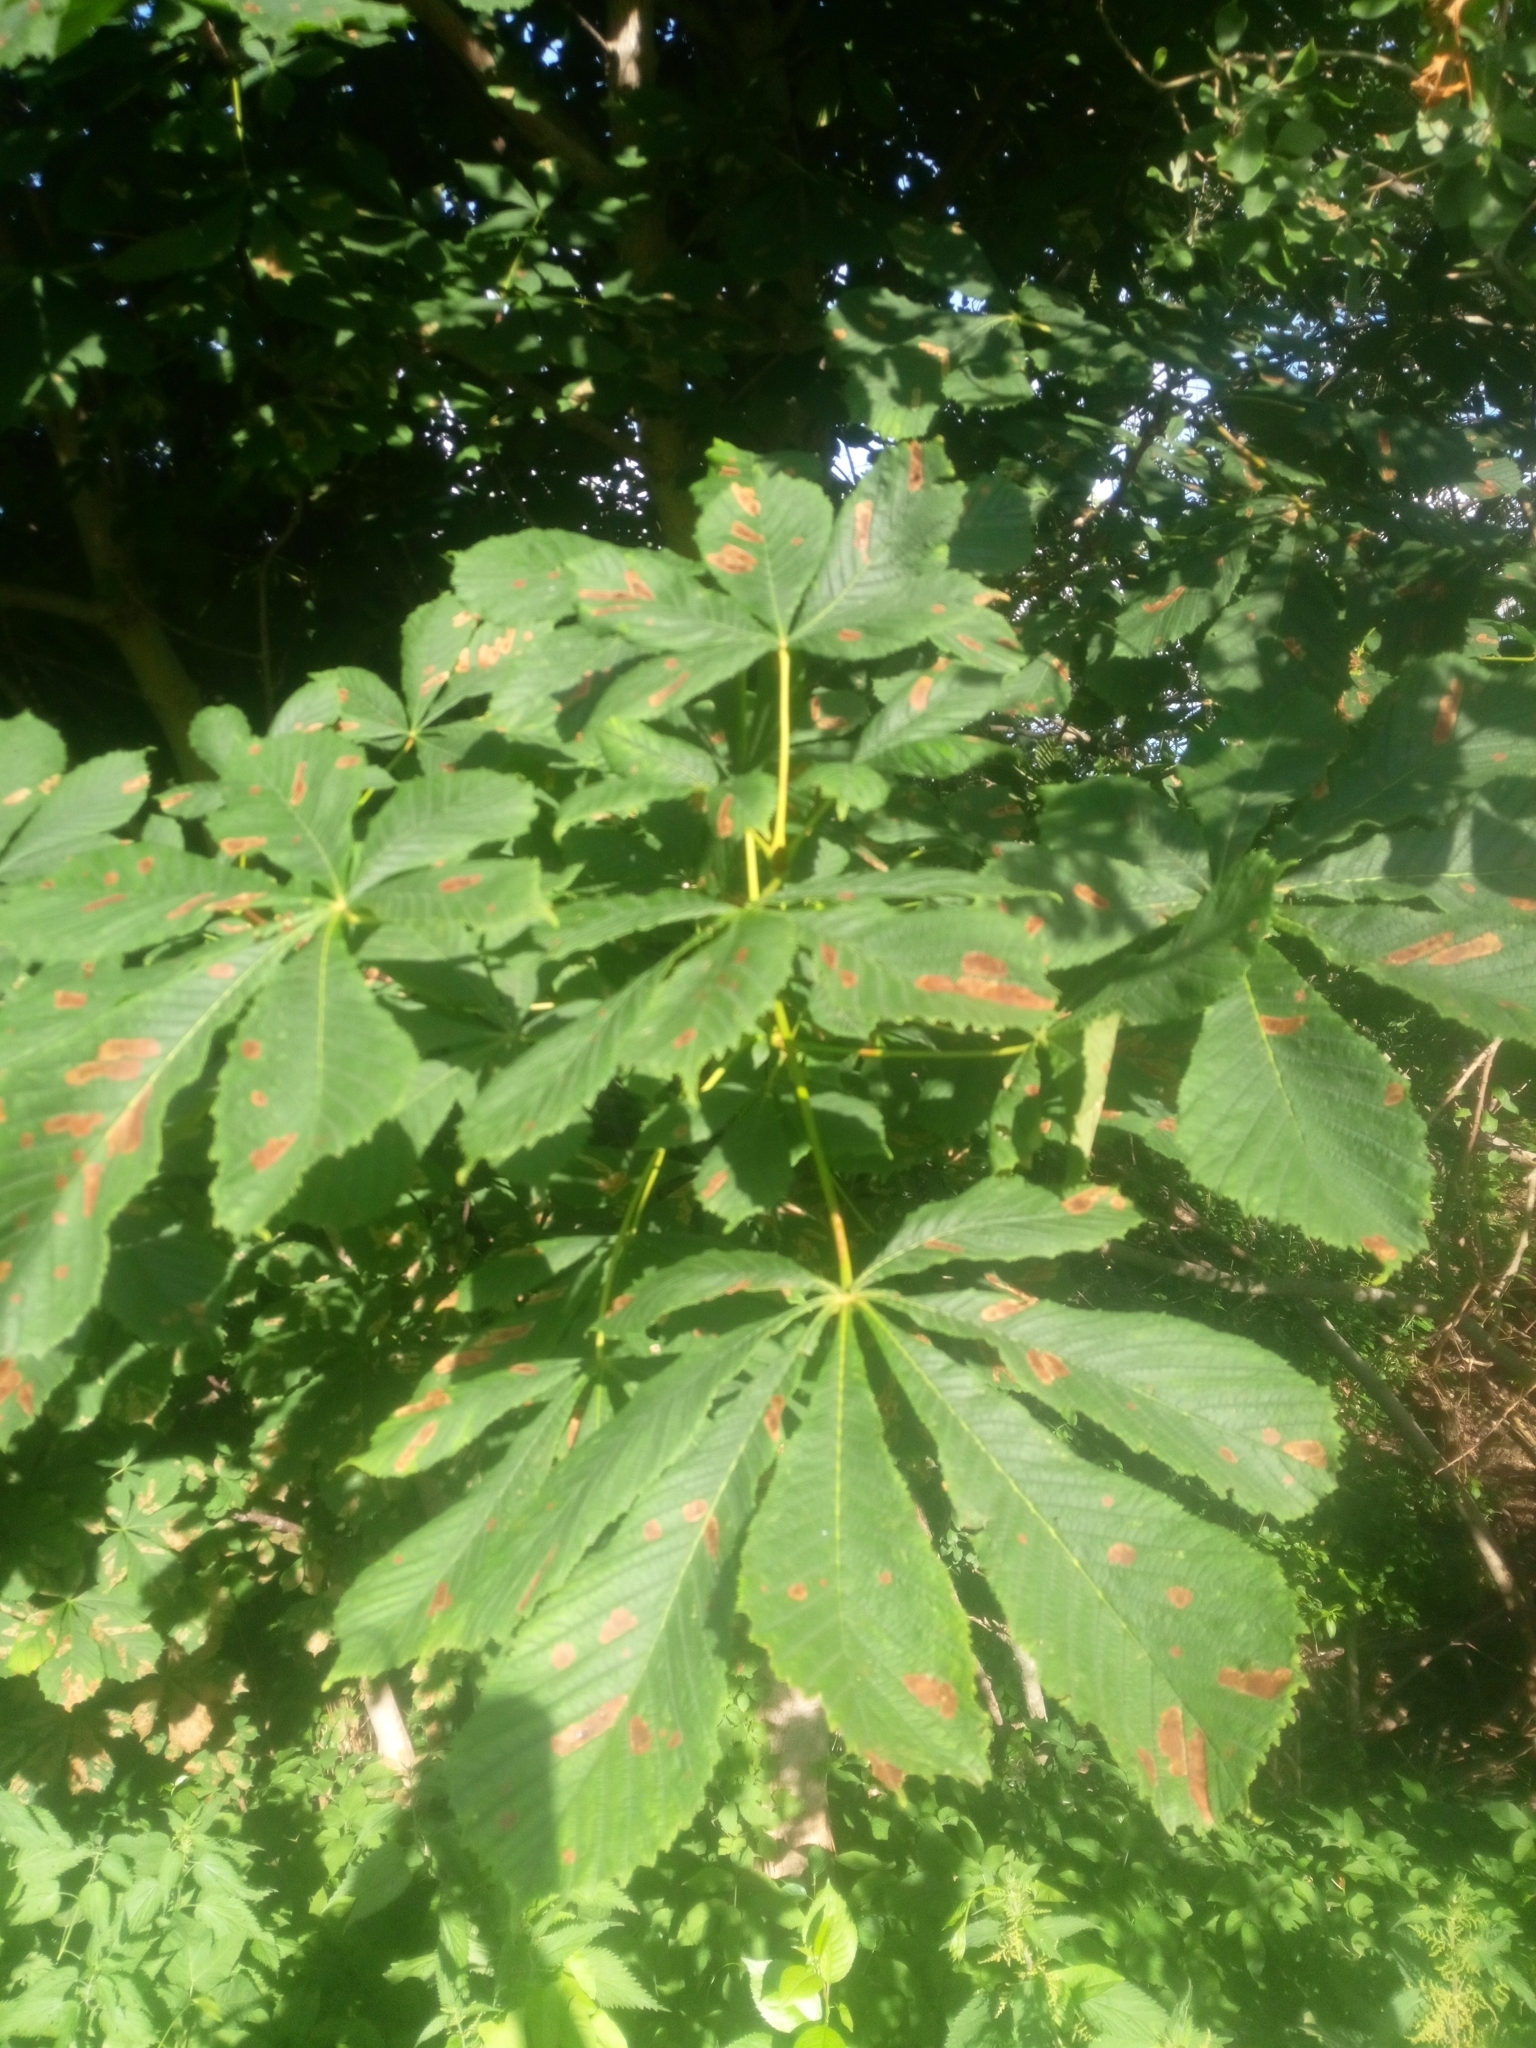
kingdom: Animalia
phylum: Arthropoda
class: Insecta
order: Lepidoptera
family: Gracillariidae
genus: Cameraria
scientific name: Cameraria ohridella
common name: Horse-chestnut leaf-miner
